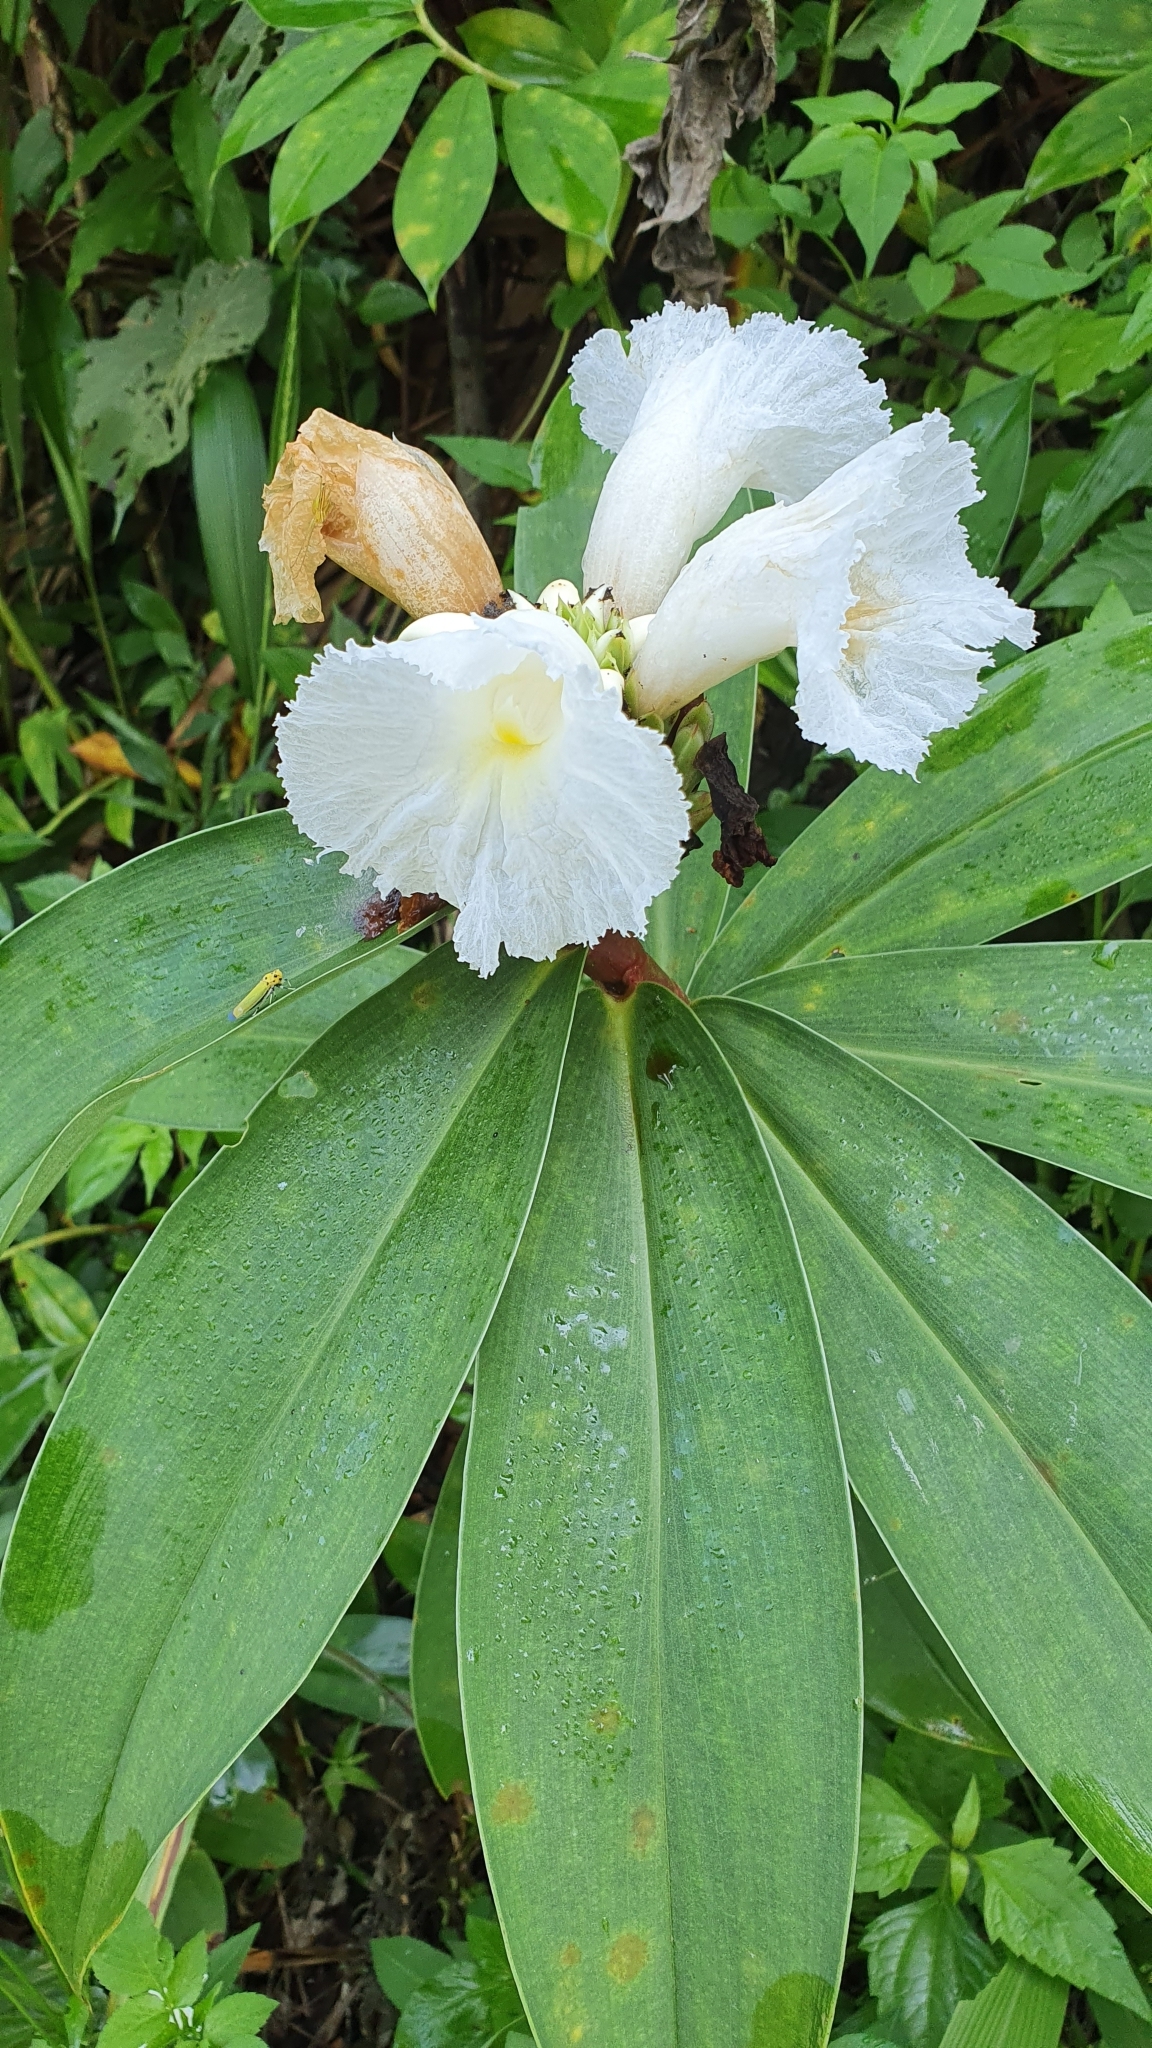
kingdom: Plantae
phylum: Tracheophyta
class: Liliopsida
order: Zingiberales
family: Costaceae
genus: Hellenia
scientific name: Hellenia speciosa
